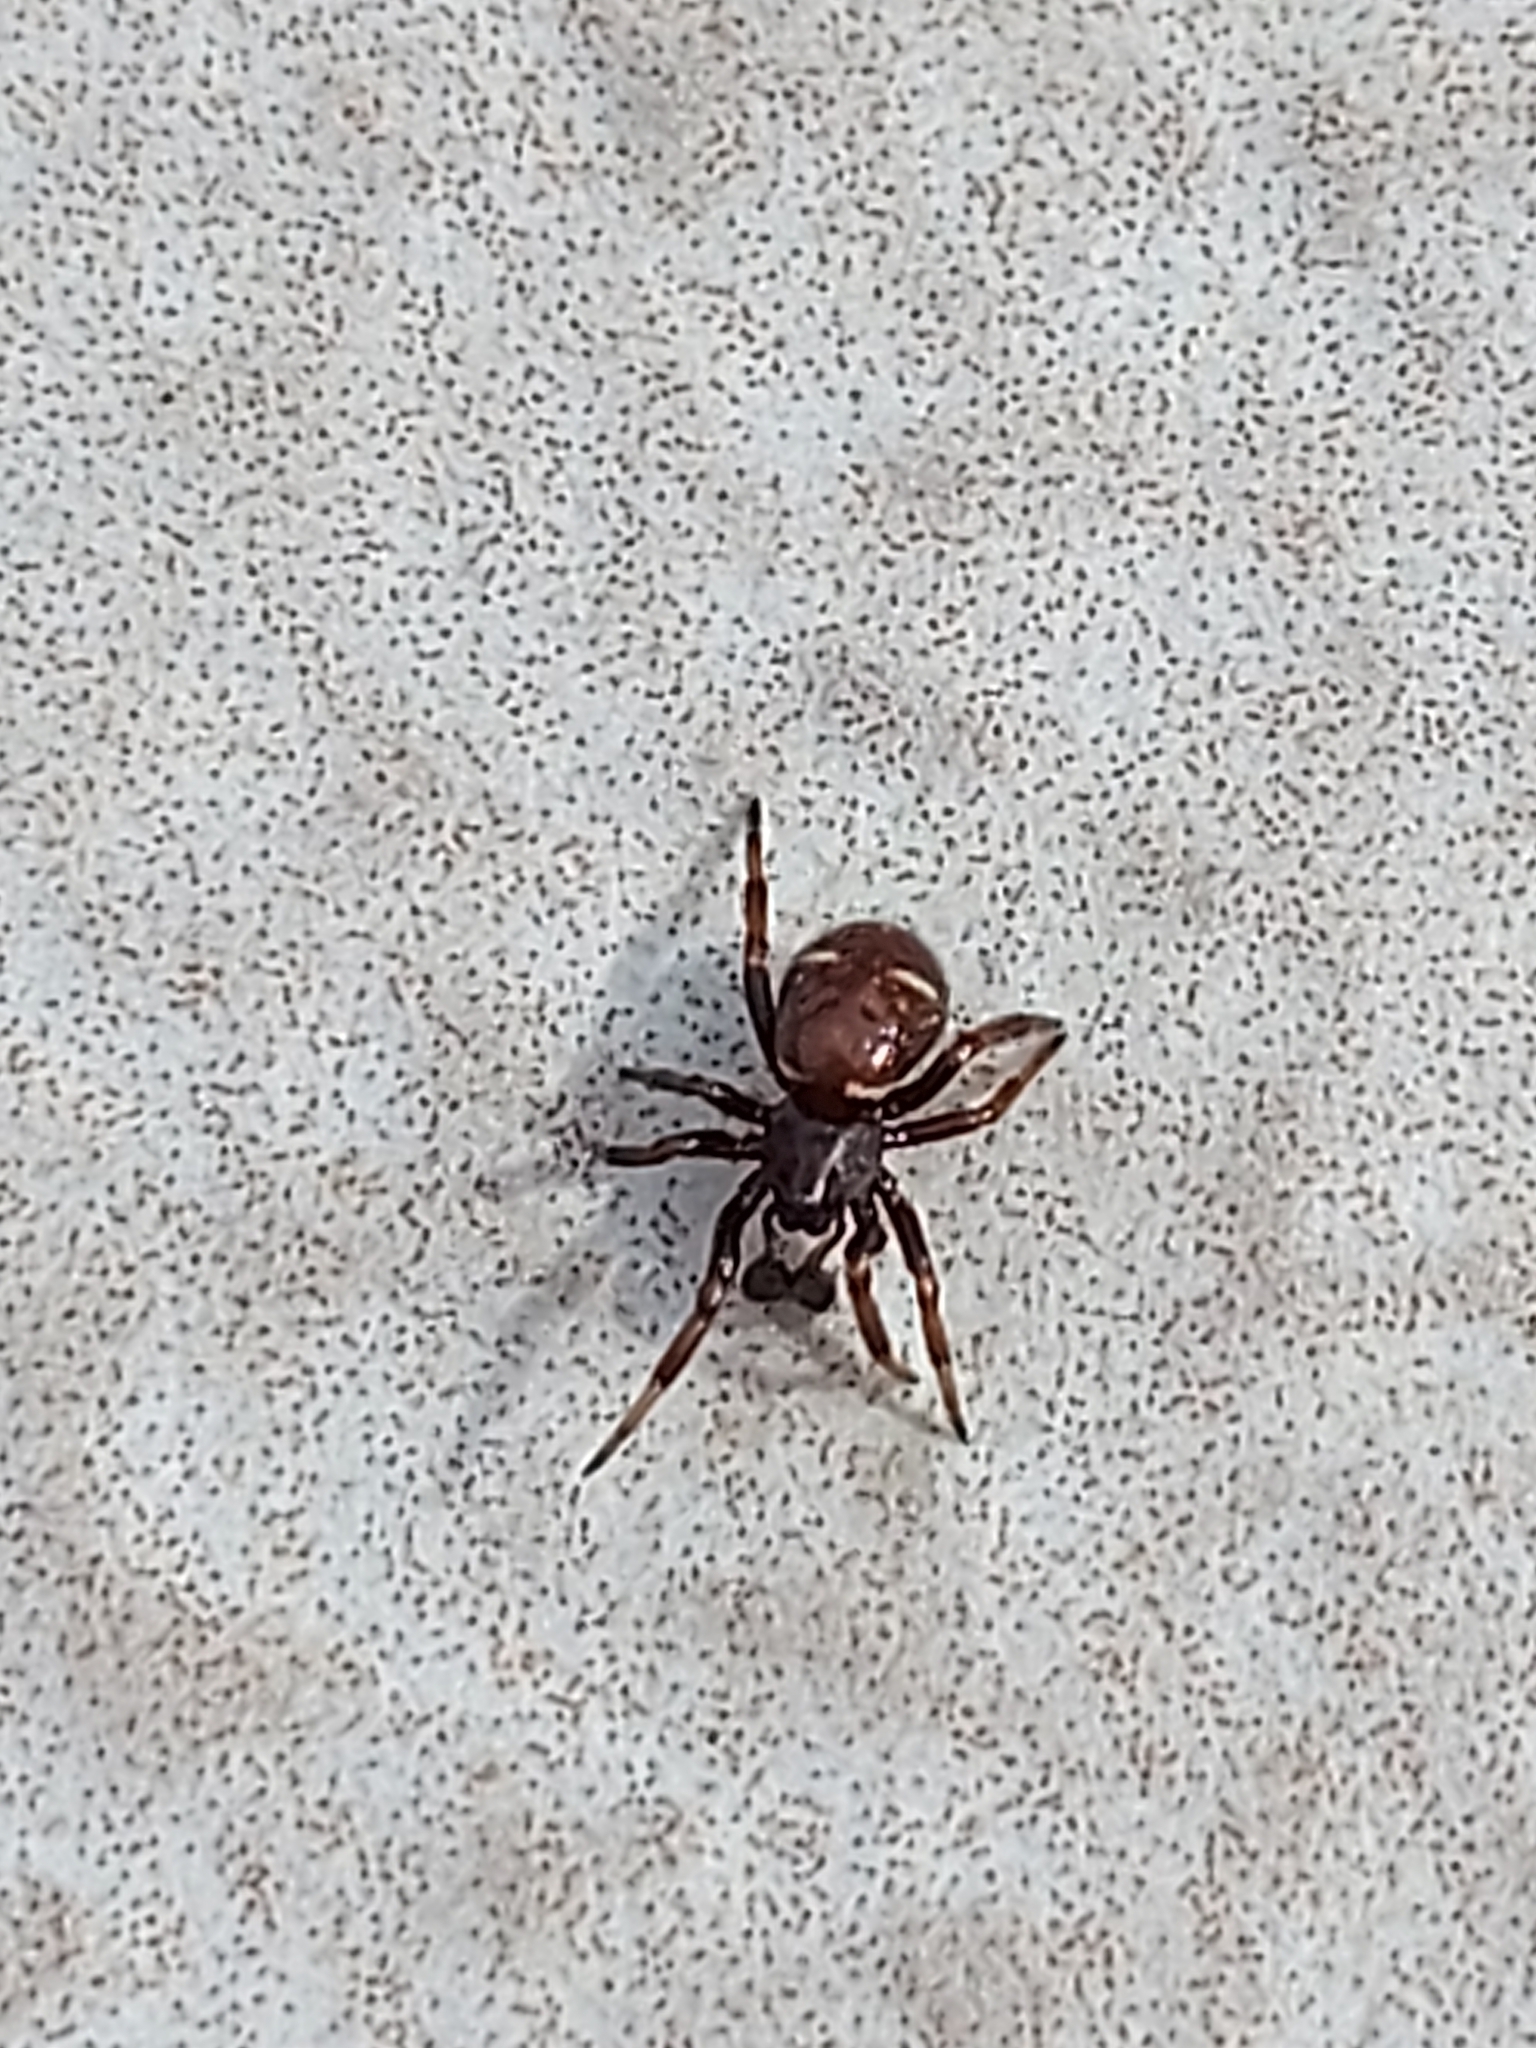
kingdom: Animalia
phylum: Arthropoda
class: Arachnida
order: Araneae
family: Theridiidae
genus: Asagena
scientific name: Asagena phalerata
